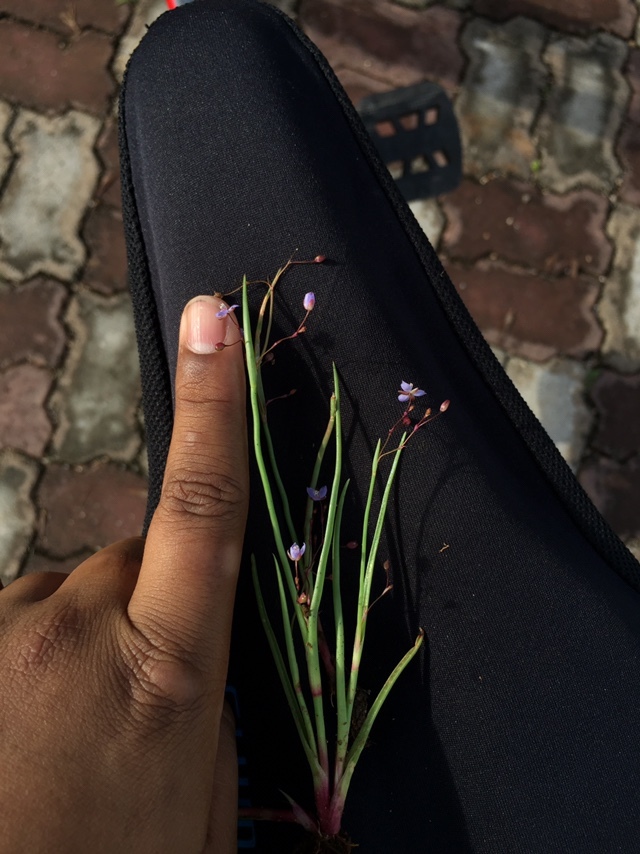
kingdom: Plantae
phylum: Tracheophyta
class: Liliopsida
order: Commelinales
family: Commelinaceae
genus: Murdannia
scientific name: Murdannia semiteres
